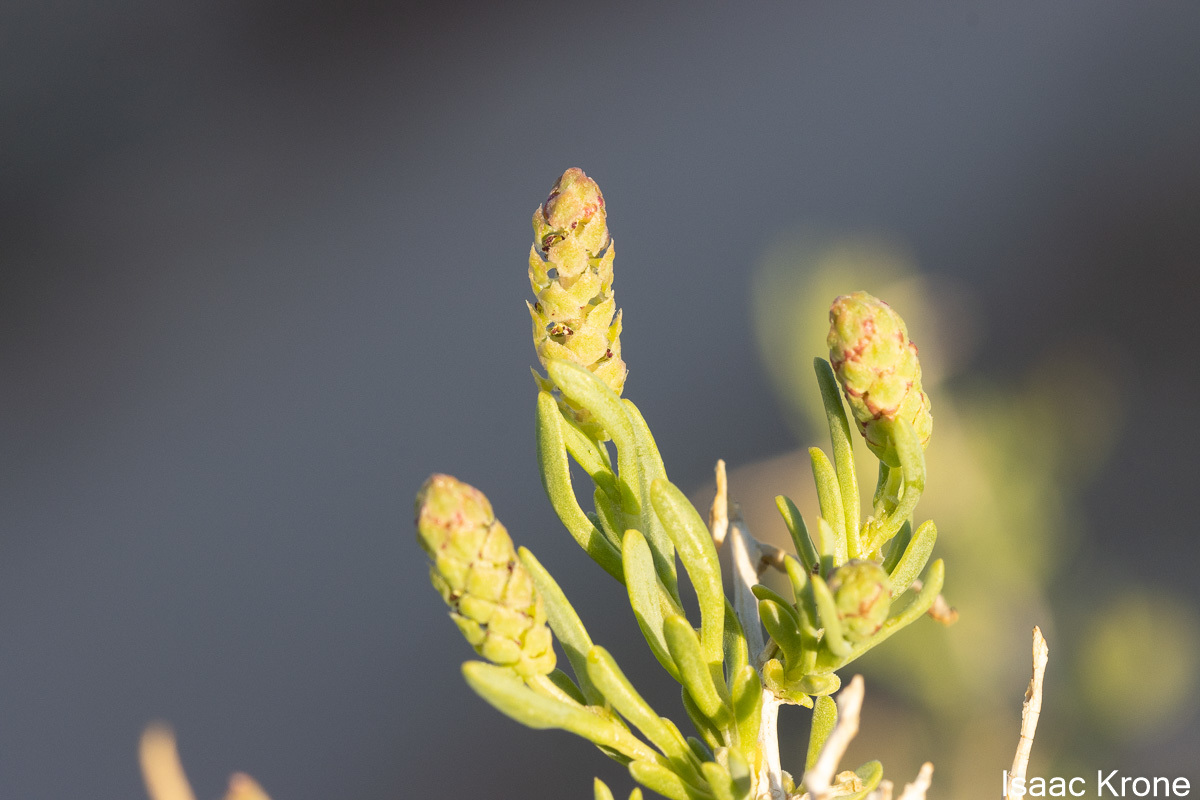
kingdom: Plantae
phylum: Tracheophyta
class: Magnoliopsida
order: Caryophyllales
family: Sarcobataceae
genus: Sarcobatus
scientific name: Sarcobatus vermiculatus
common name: Greasewood
